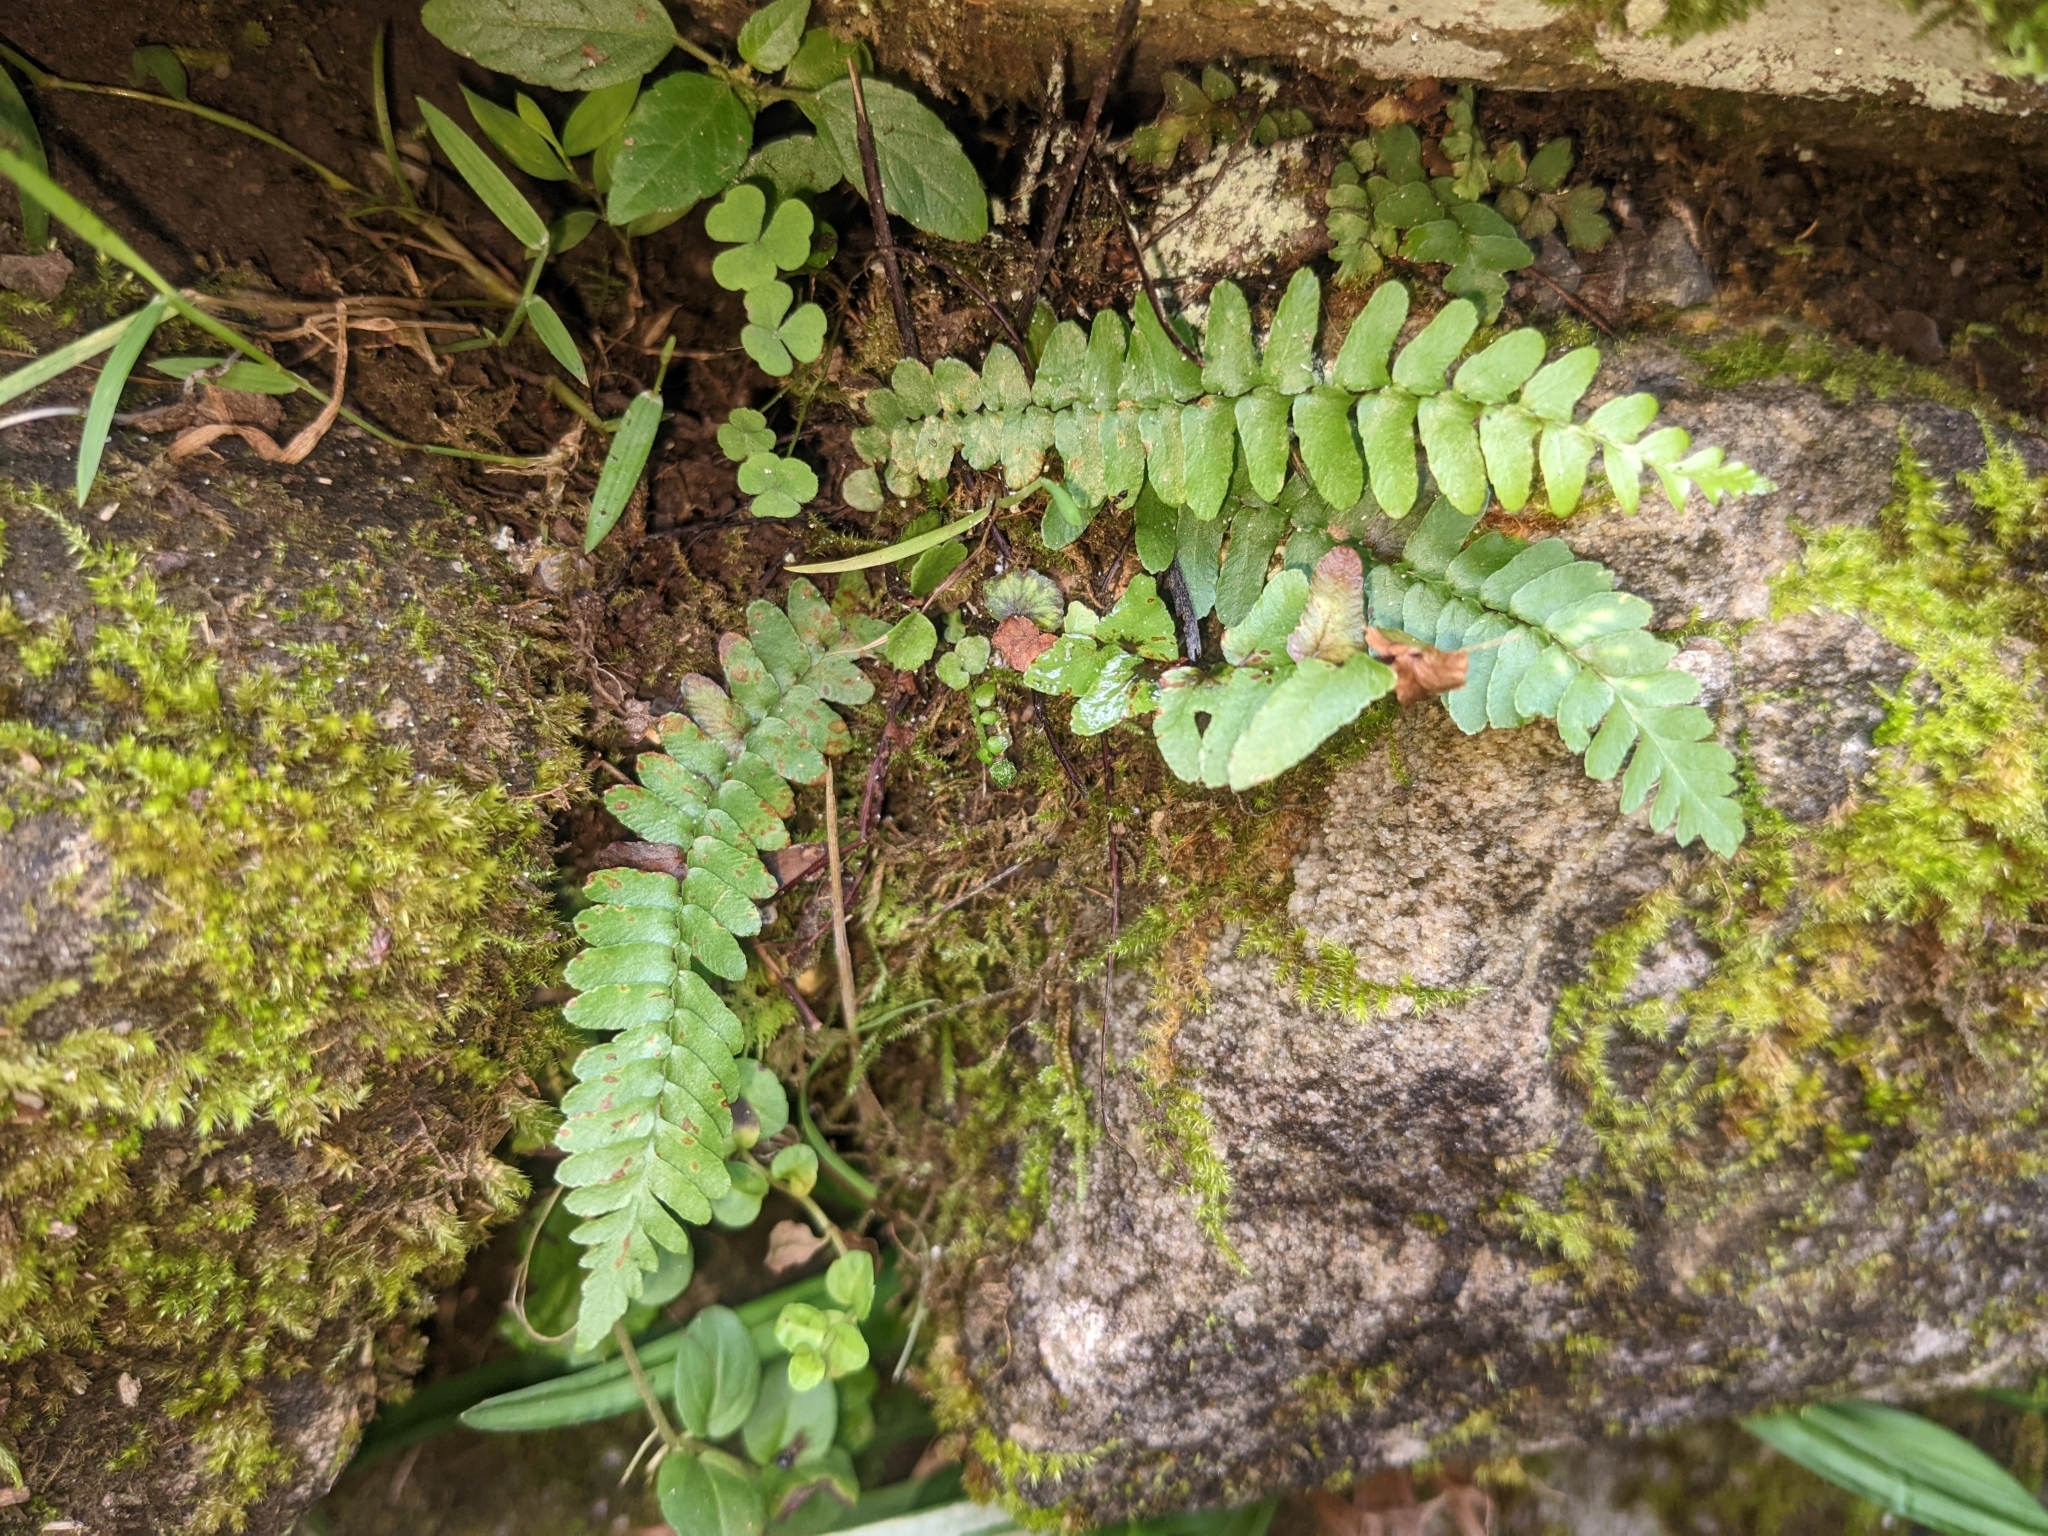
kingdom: Plantae
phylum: Tracheophyta
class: Polypodiopsida
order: Polypodiales
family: Aspleniaceae
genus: Asplenium
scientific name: Asplenium platyneuron
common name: Ebony spleenwort
